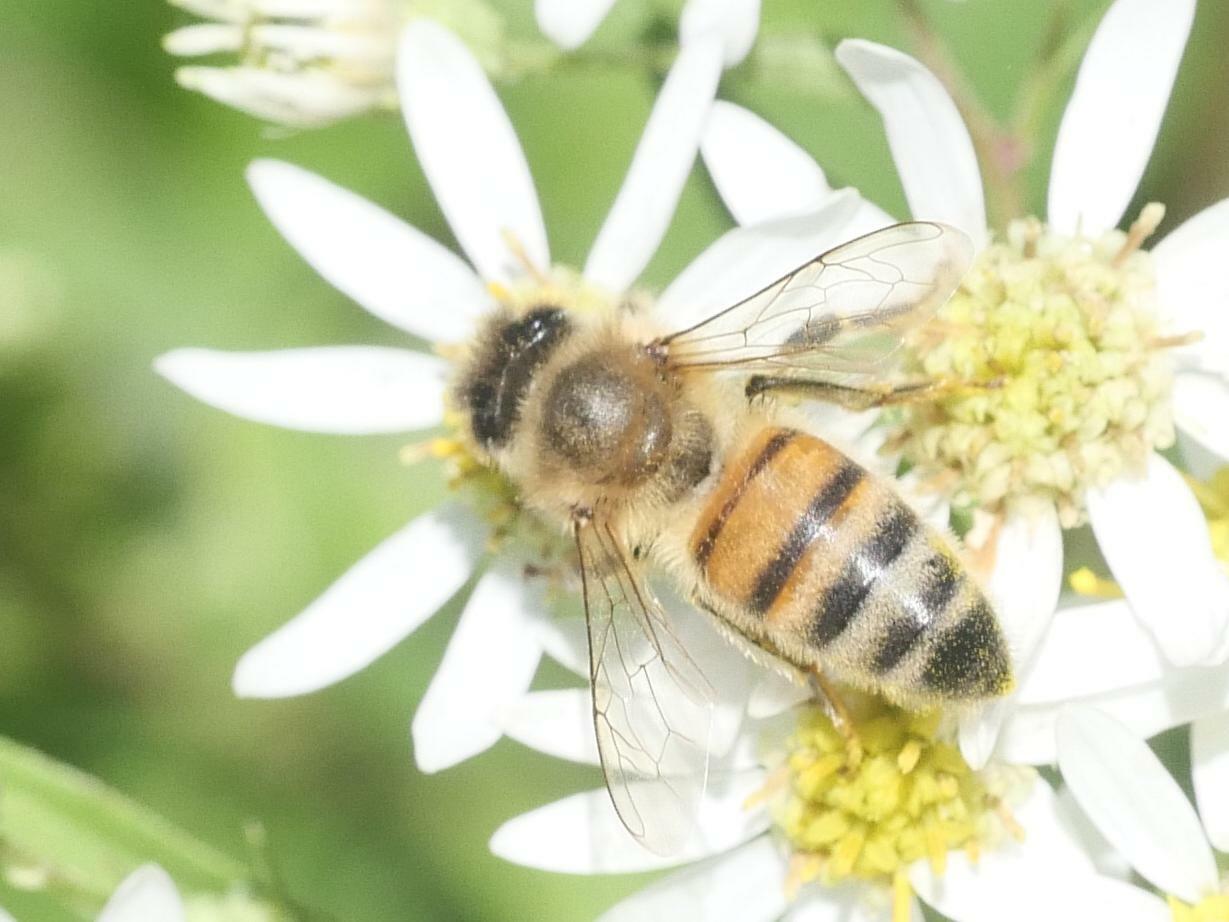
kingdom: Animalia
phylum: Arthropoda
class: Insecta
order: Hymenoptera
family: Apidae
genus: Apis
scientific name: Apis mellifera
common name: Honey bee
